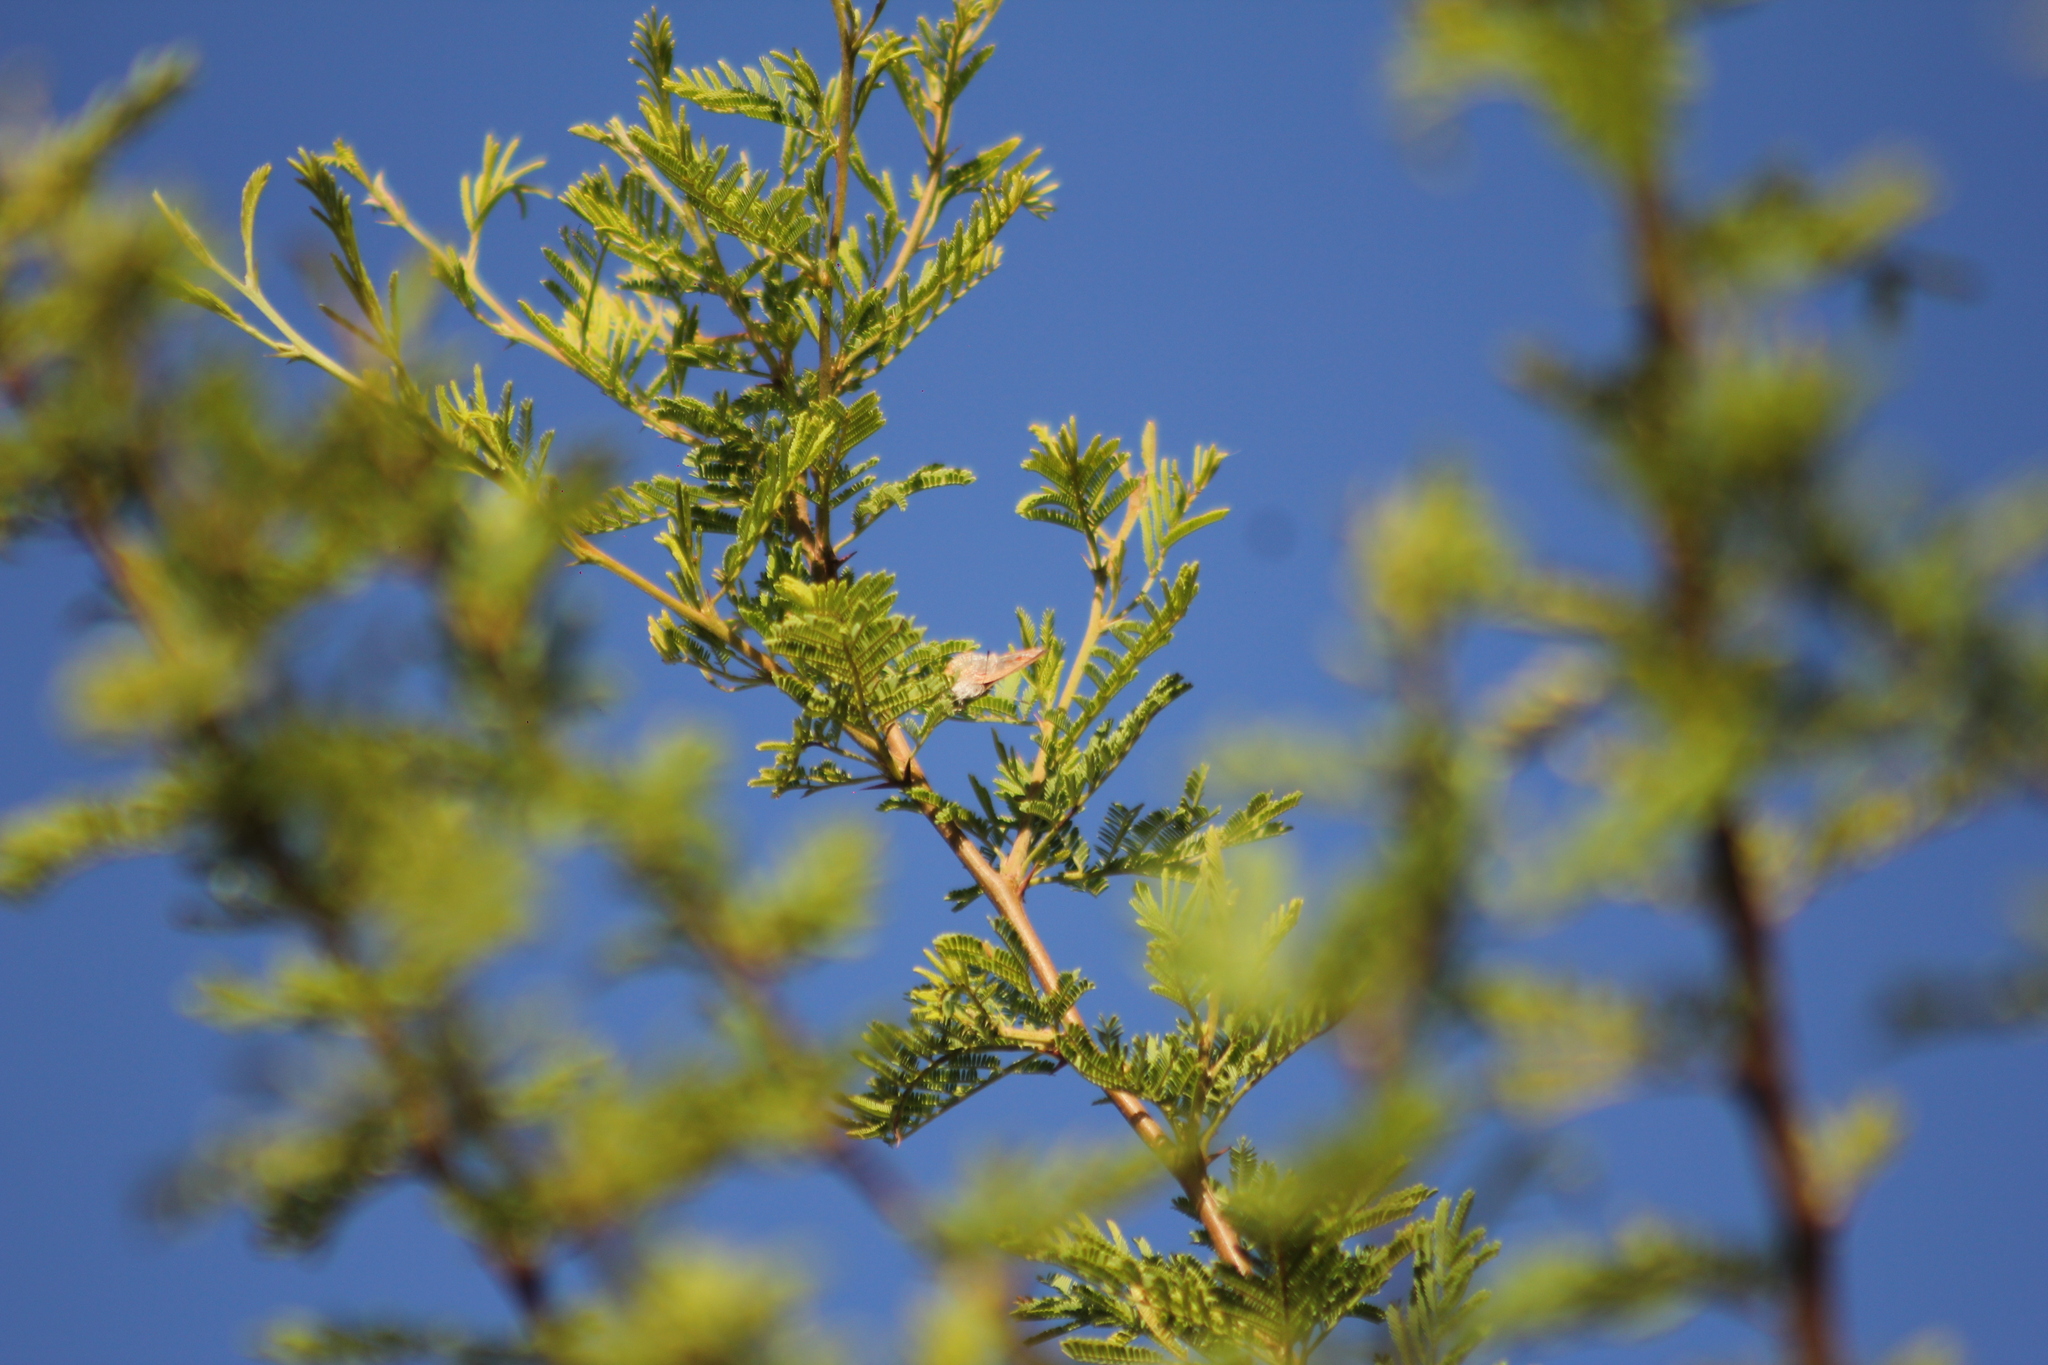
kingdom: Animalia
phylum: Arthropoda
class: Insecta
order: Lepidoptera
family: Lycaenidae
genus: Ministrymon
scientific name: Ministrymon
